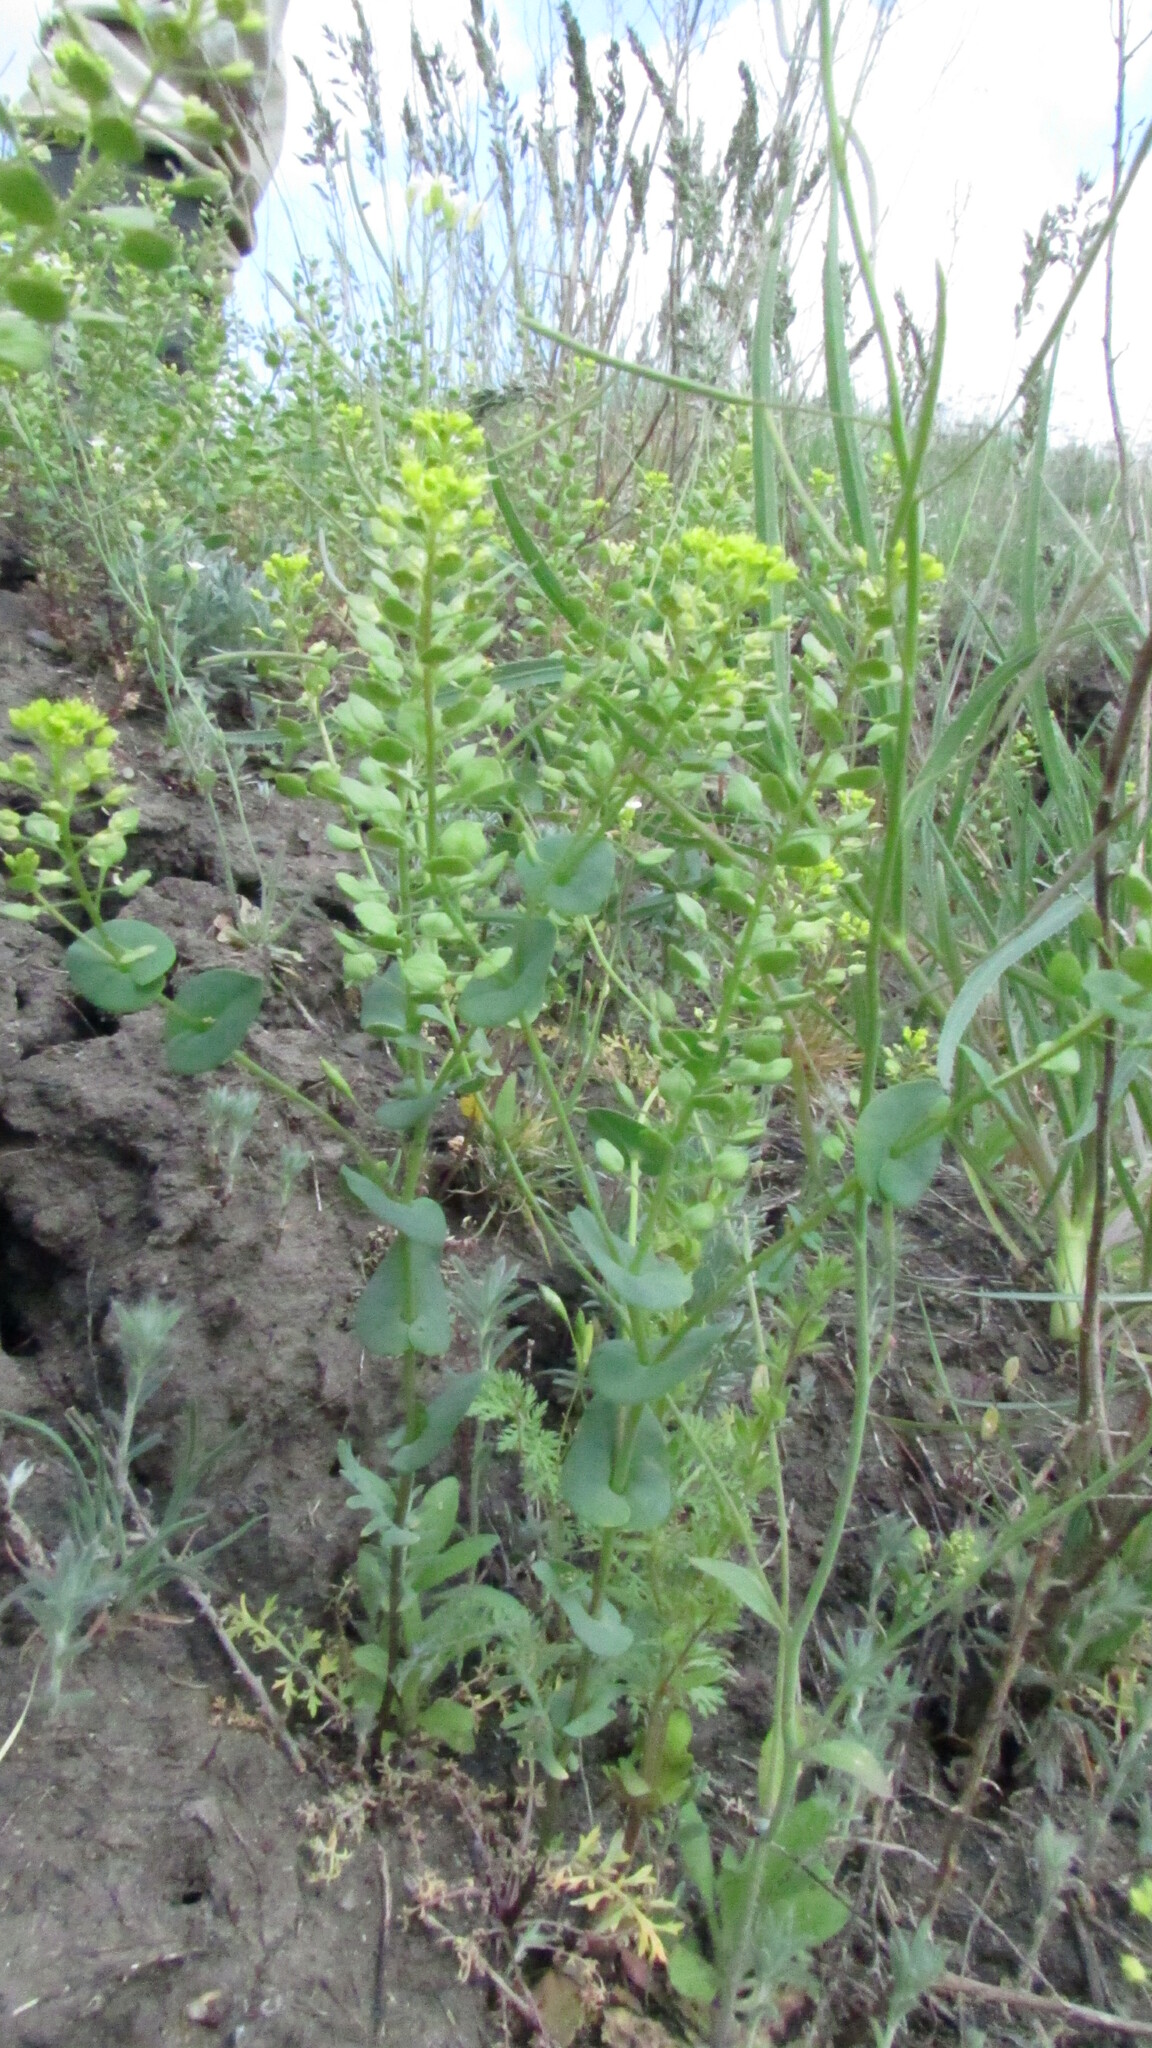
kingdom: Plantae
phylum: Tracheophyta
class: Magnoliopsida
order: Brassicales
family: Brassicaceae
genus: Lepidium
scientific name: Lepidium perfoliatum
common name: Perfoliate pepperwort
